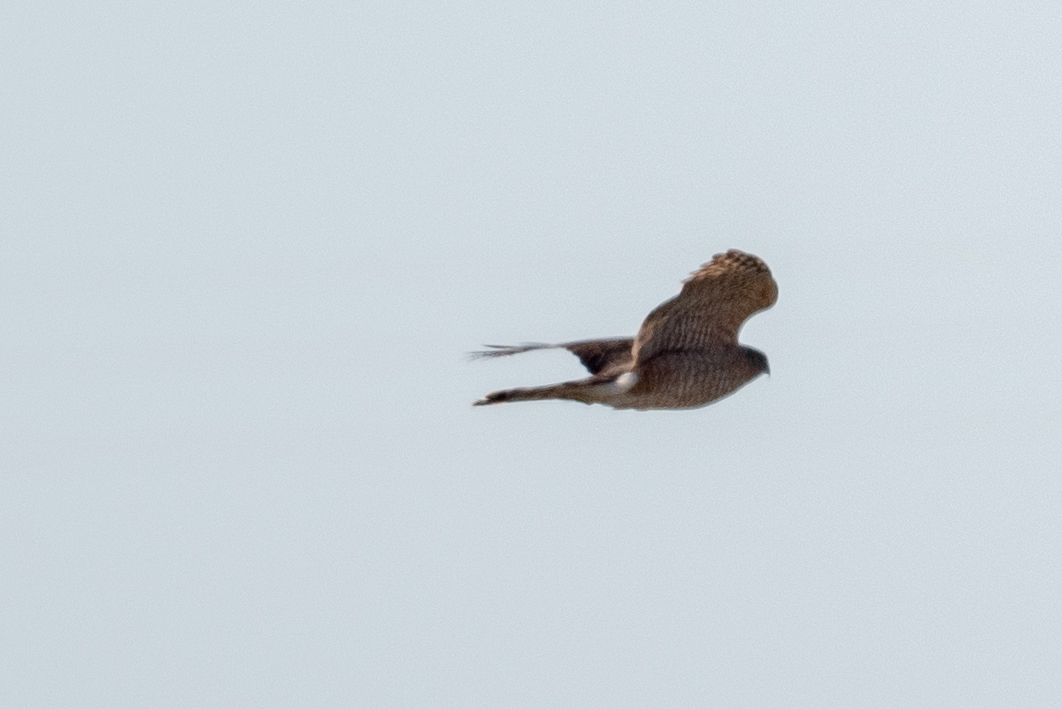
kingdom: Animalia
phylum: Chordata
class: Aves
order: Accipitriformes
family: Accipitridae
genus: Accipiter
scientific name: Accipiter striatus
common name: Sharp-shinned hawk
